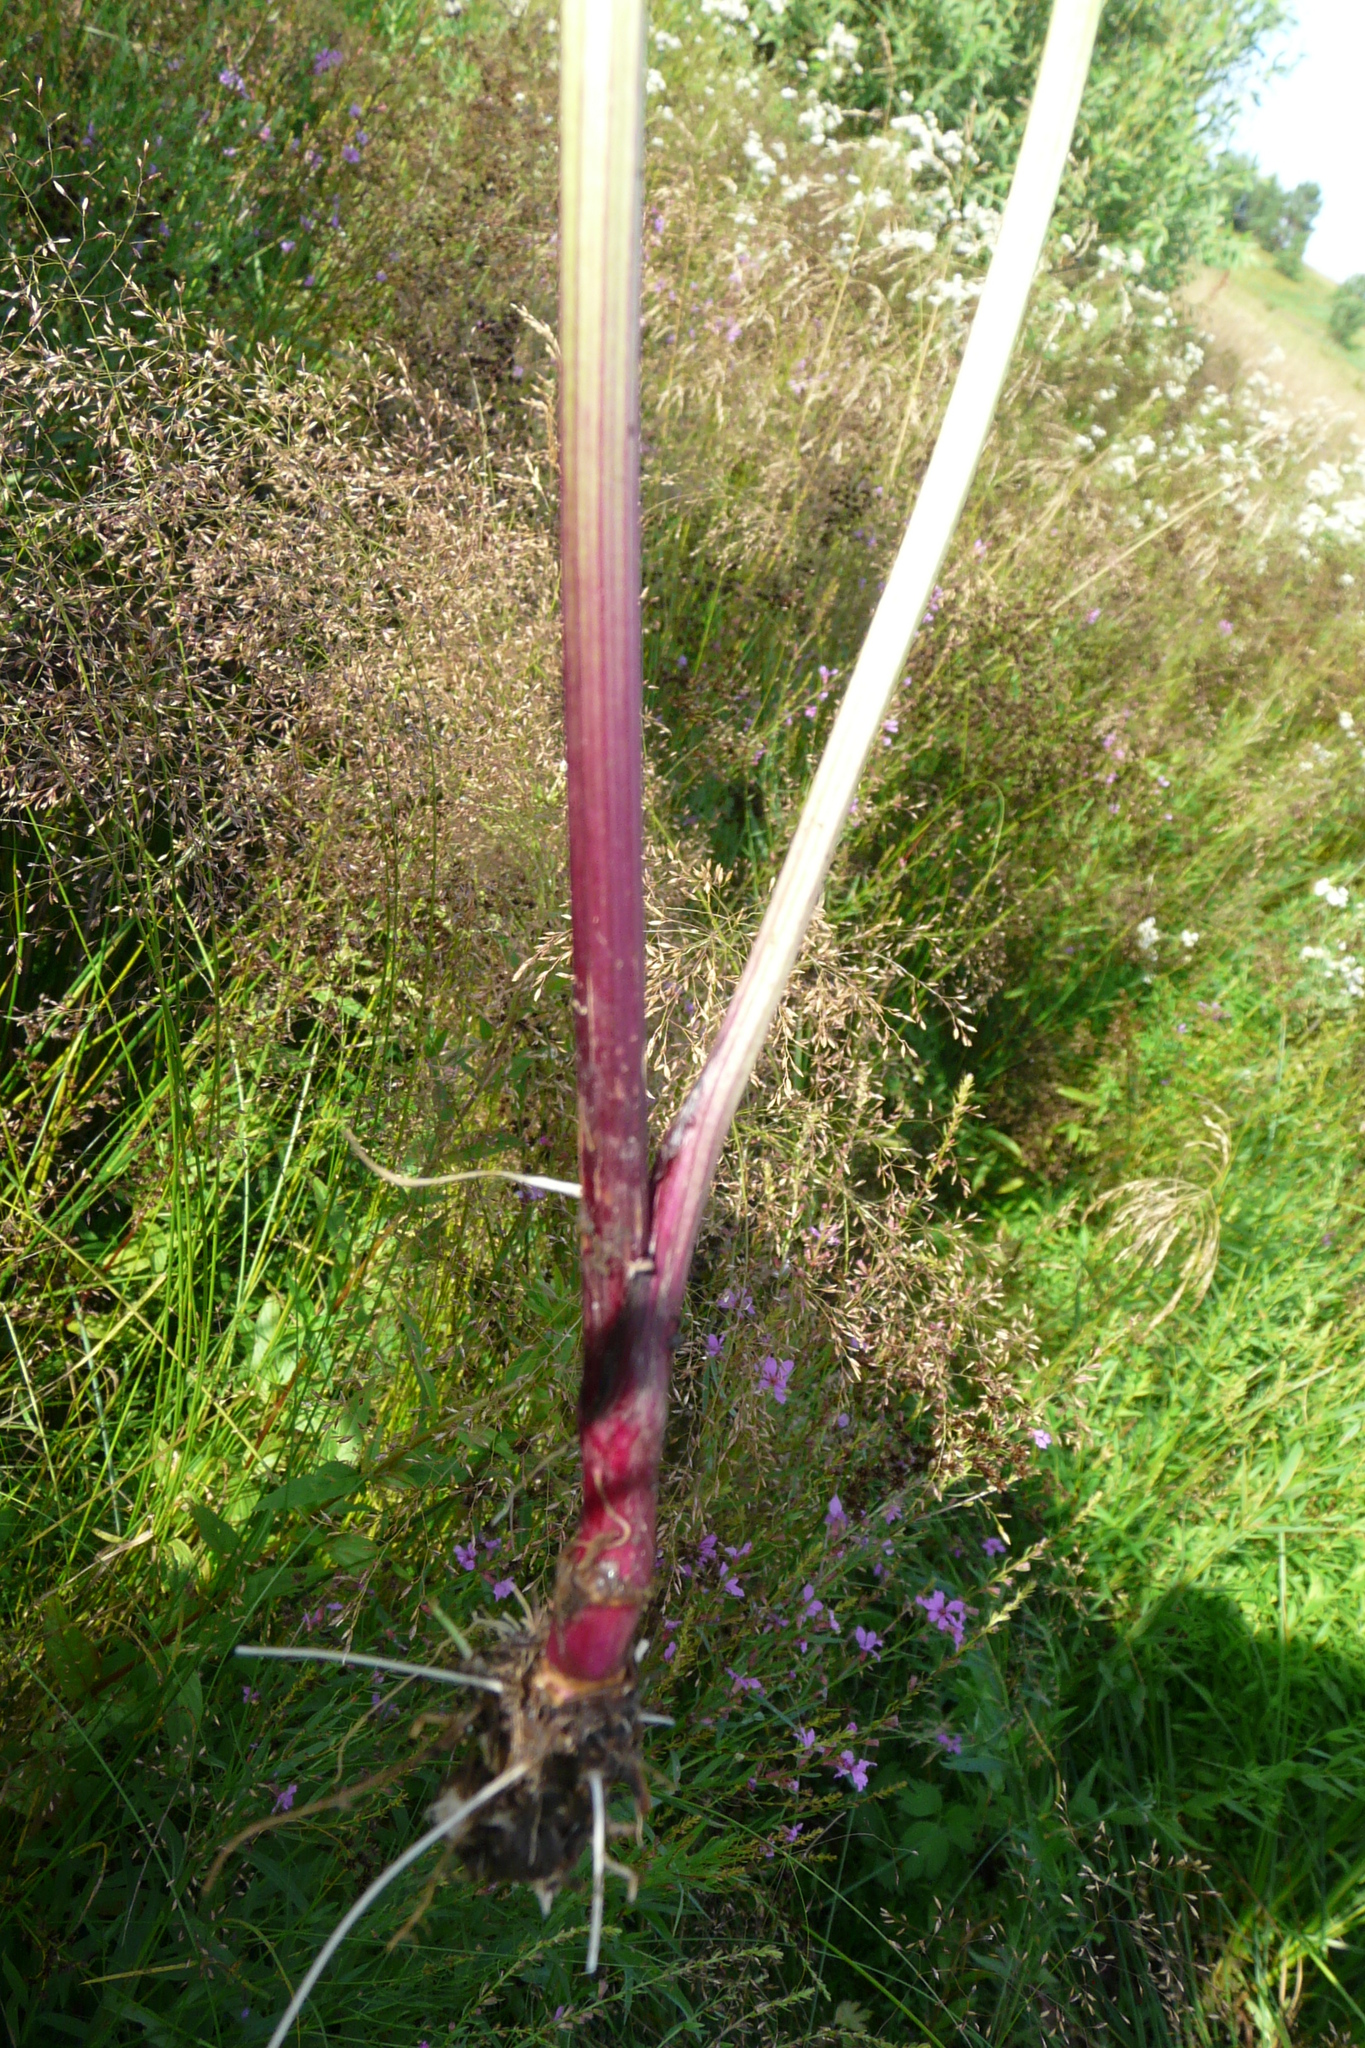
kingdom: Plantae
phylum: Tracheophyta
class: Magnoliopsida
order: Apiales
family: Apiaceae
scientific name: Apiaceae
